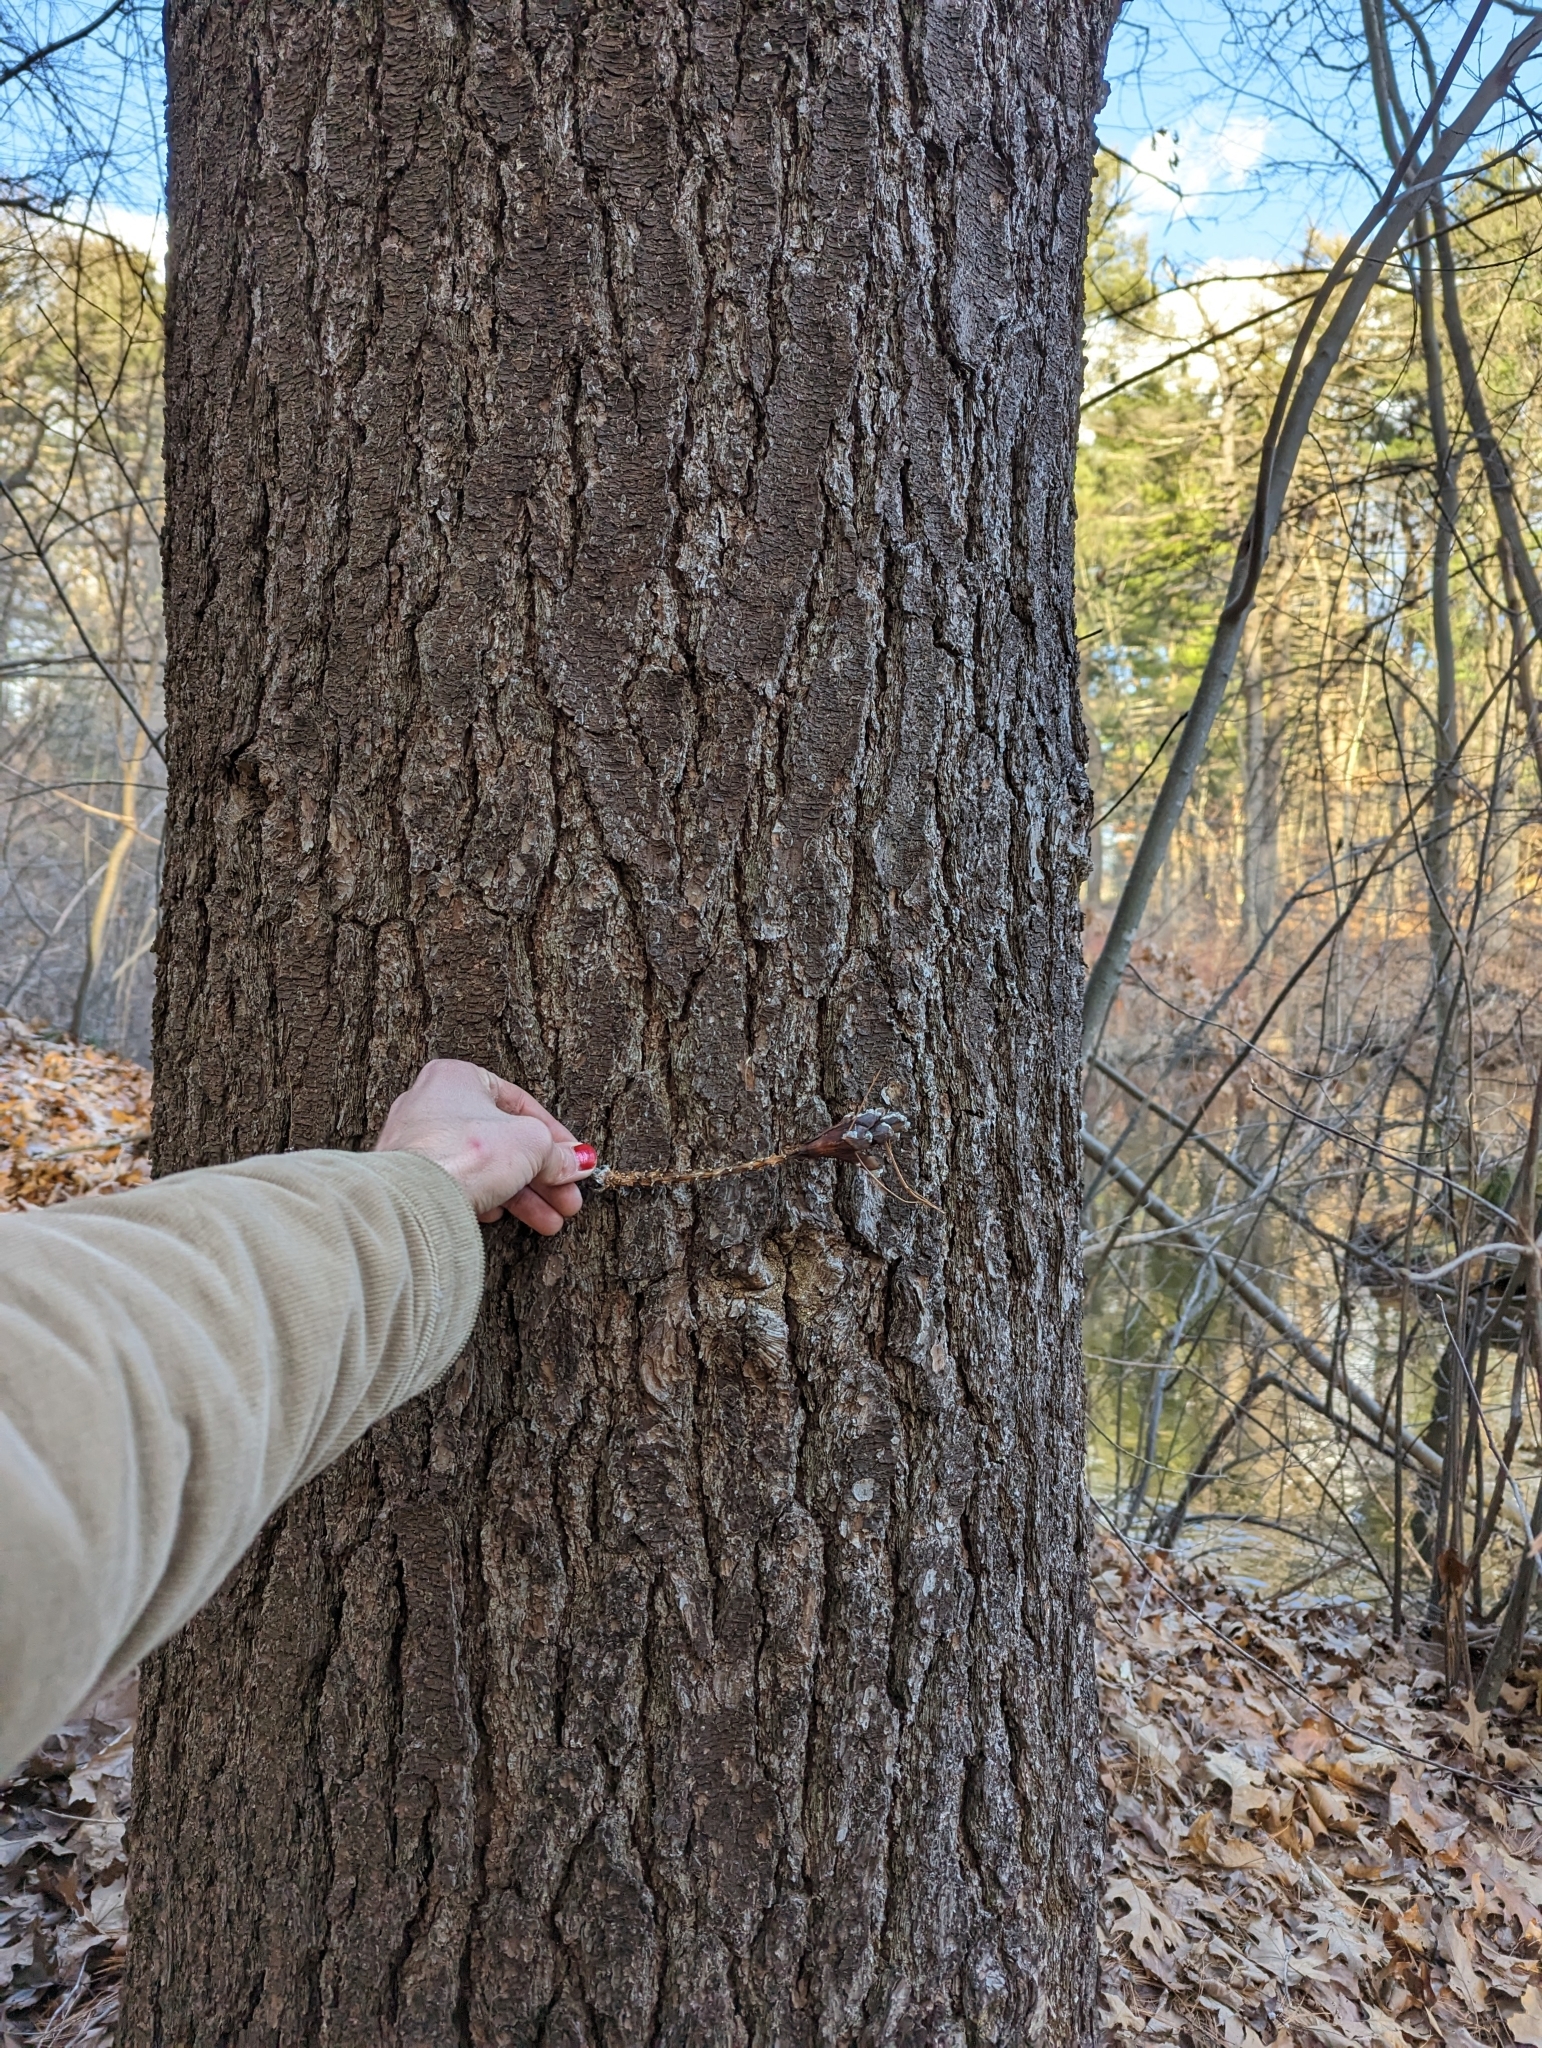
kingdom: Plantae
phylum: Tracheophyta
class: Pinopsida
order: Pinales
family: Pinaceae
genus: Pinus
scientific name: Pinus strobus
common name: Weymouth pine
